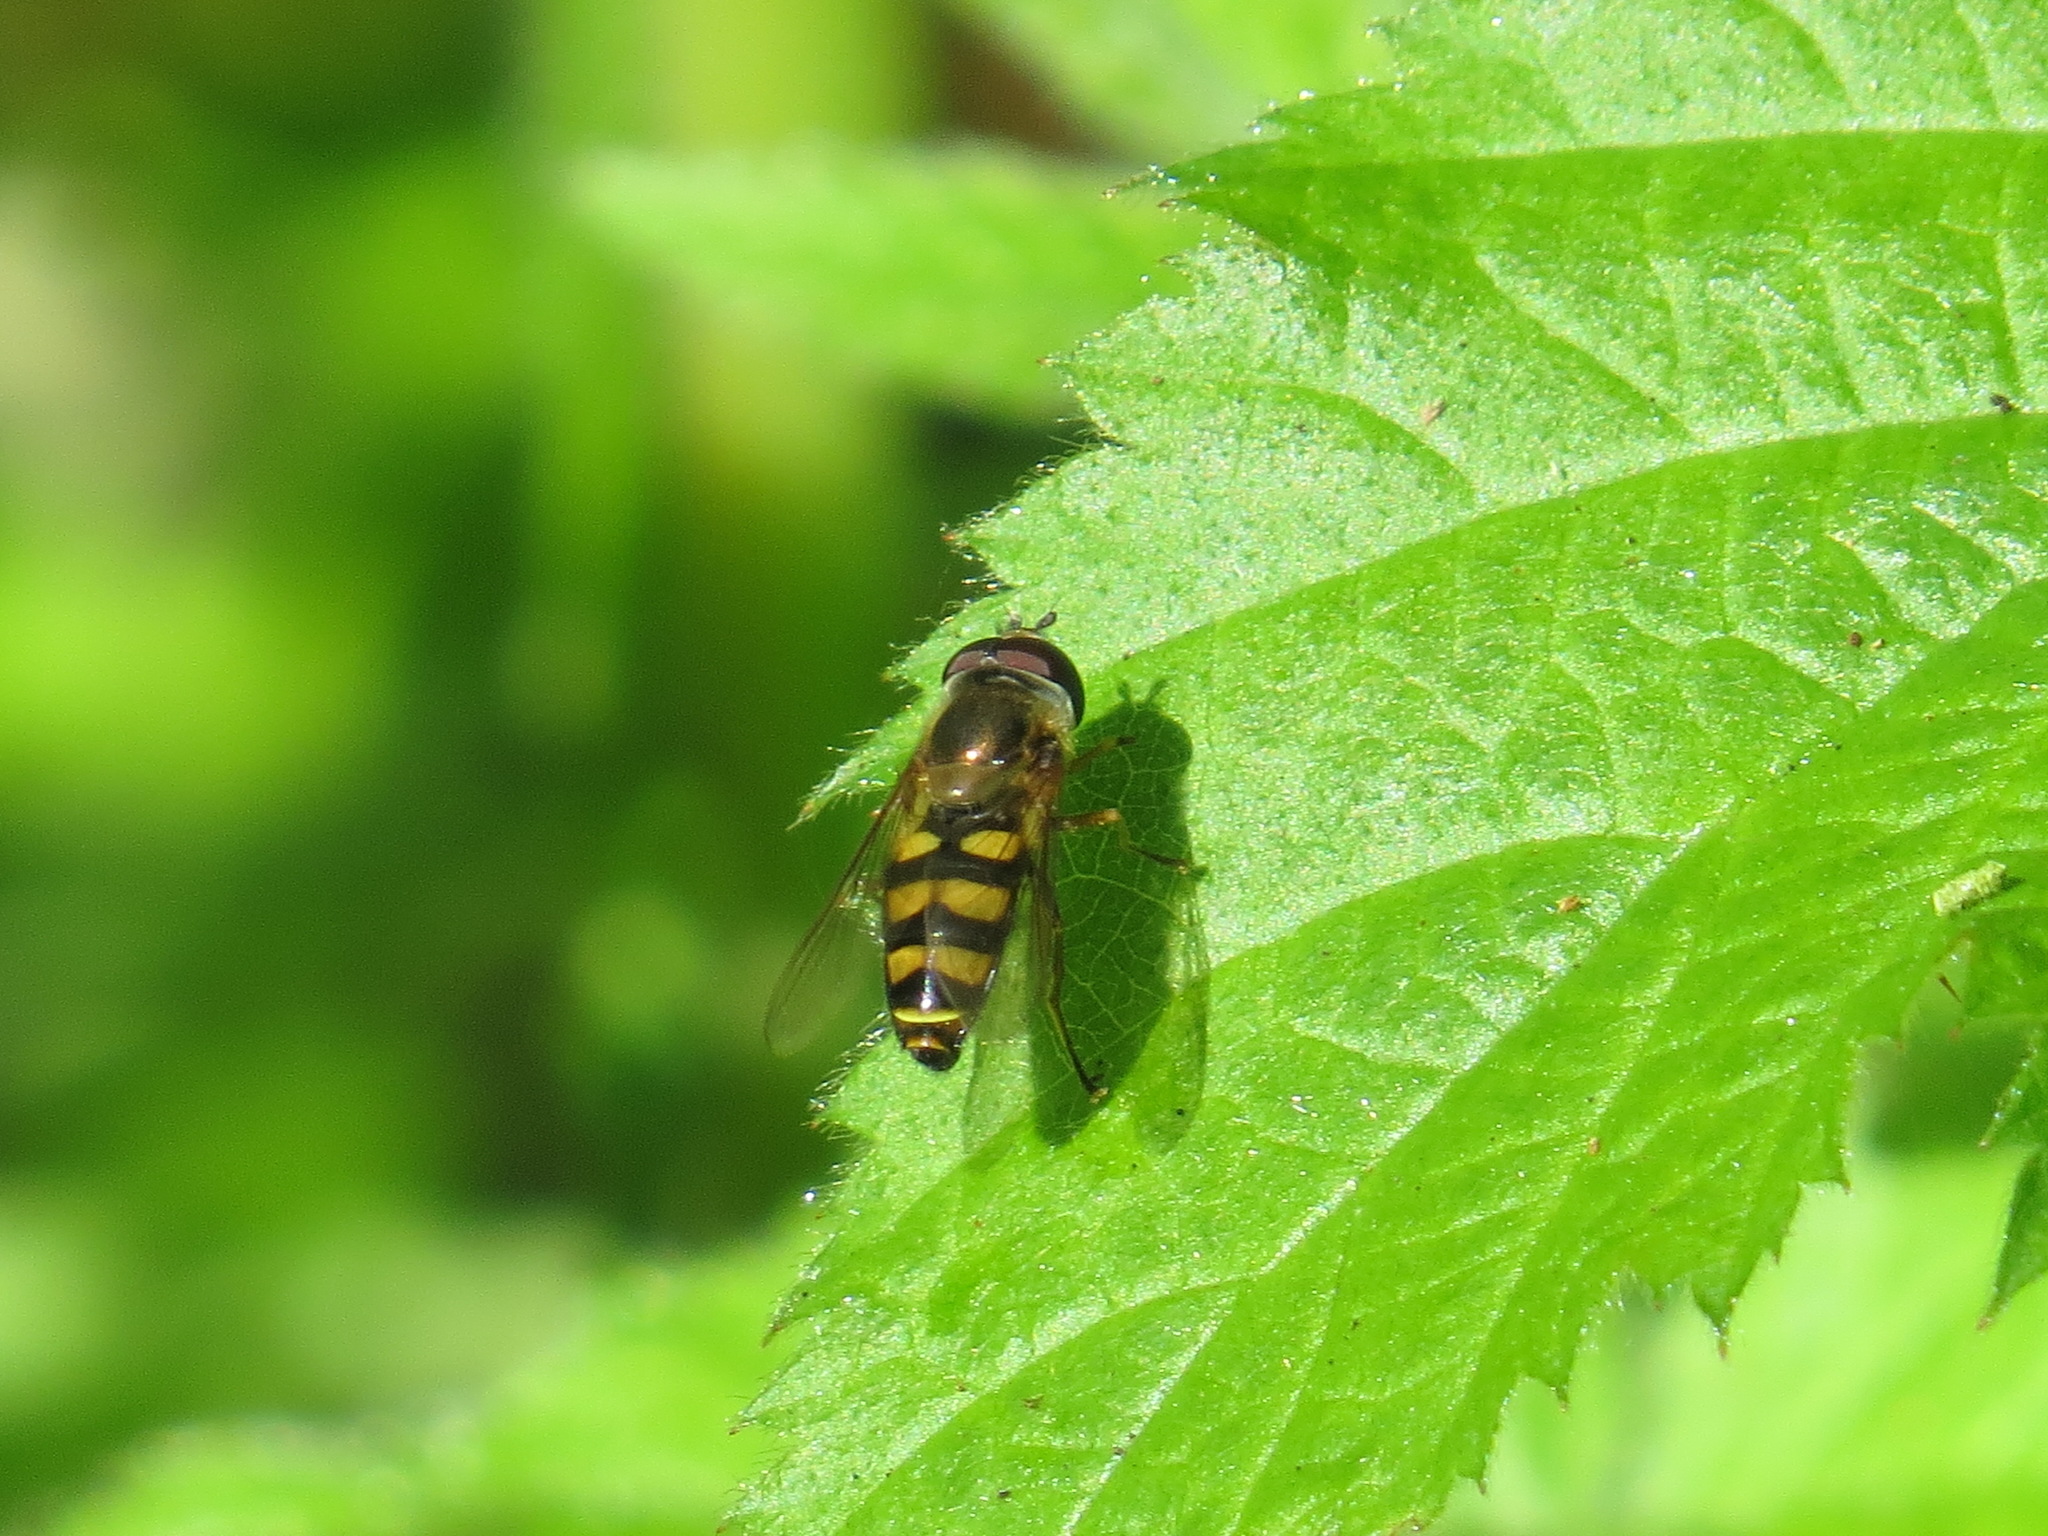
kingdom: Animalia
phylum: Arthropoda
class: Insecta
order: Diptera
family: Syrphidae
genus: Eupeodes
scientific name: Eupeodes fumipennis
